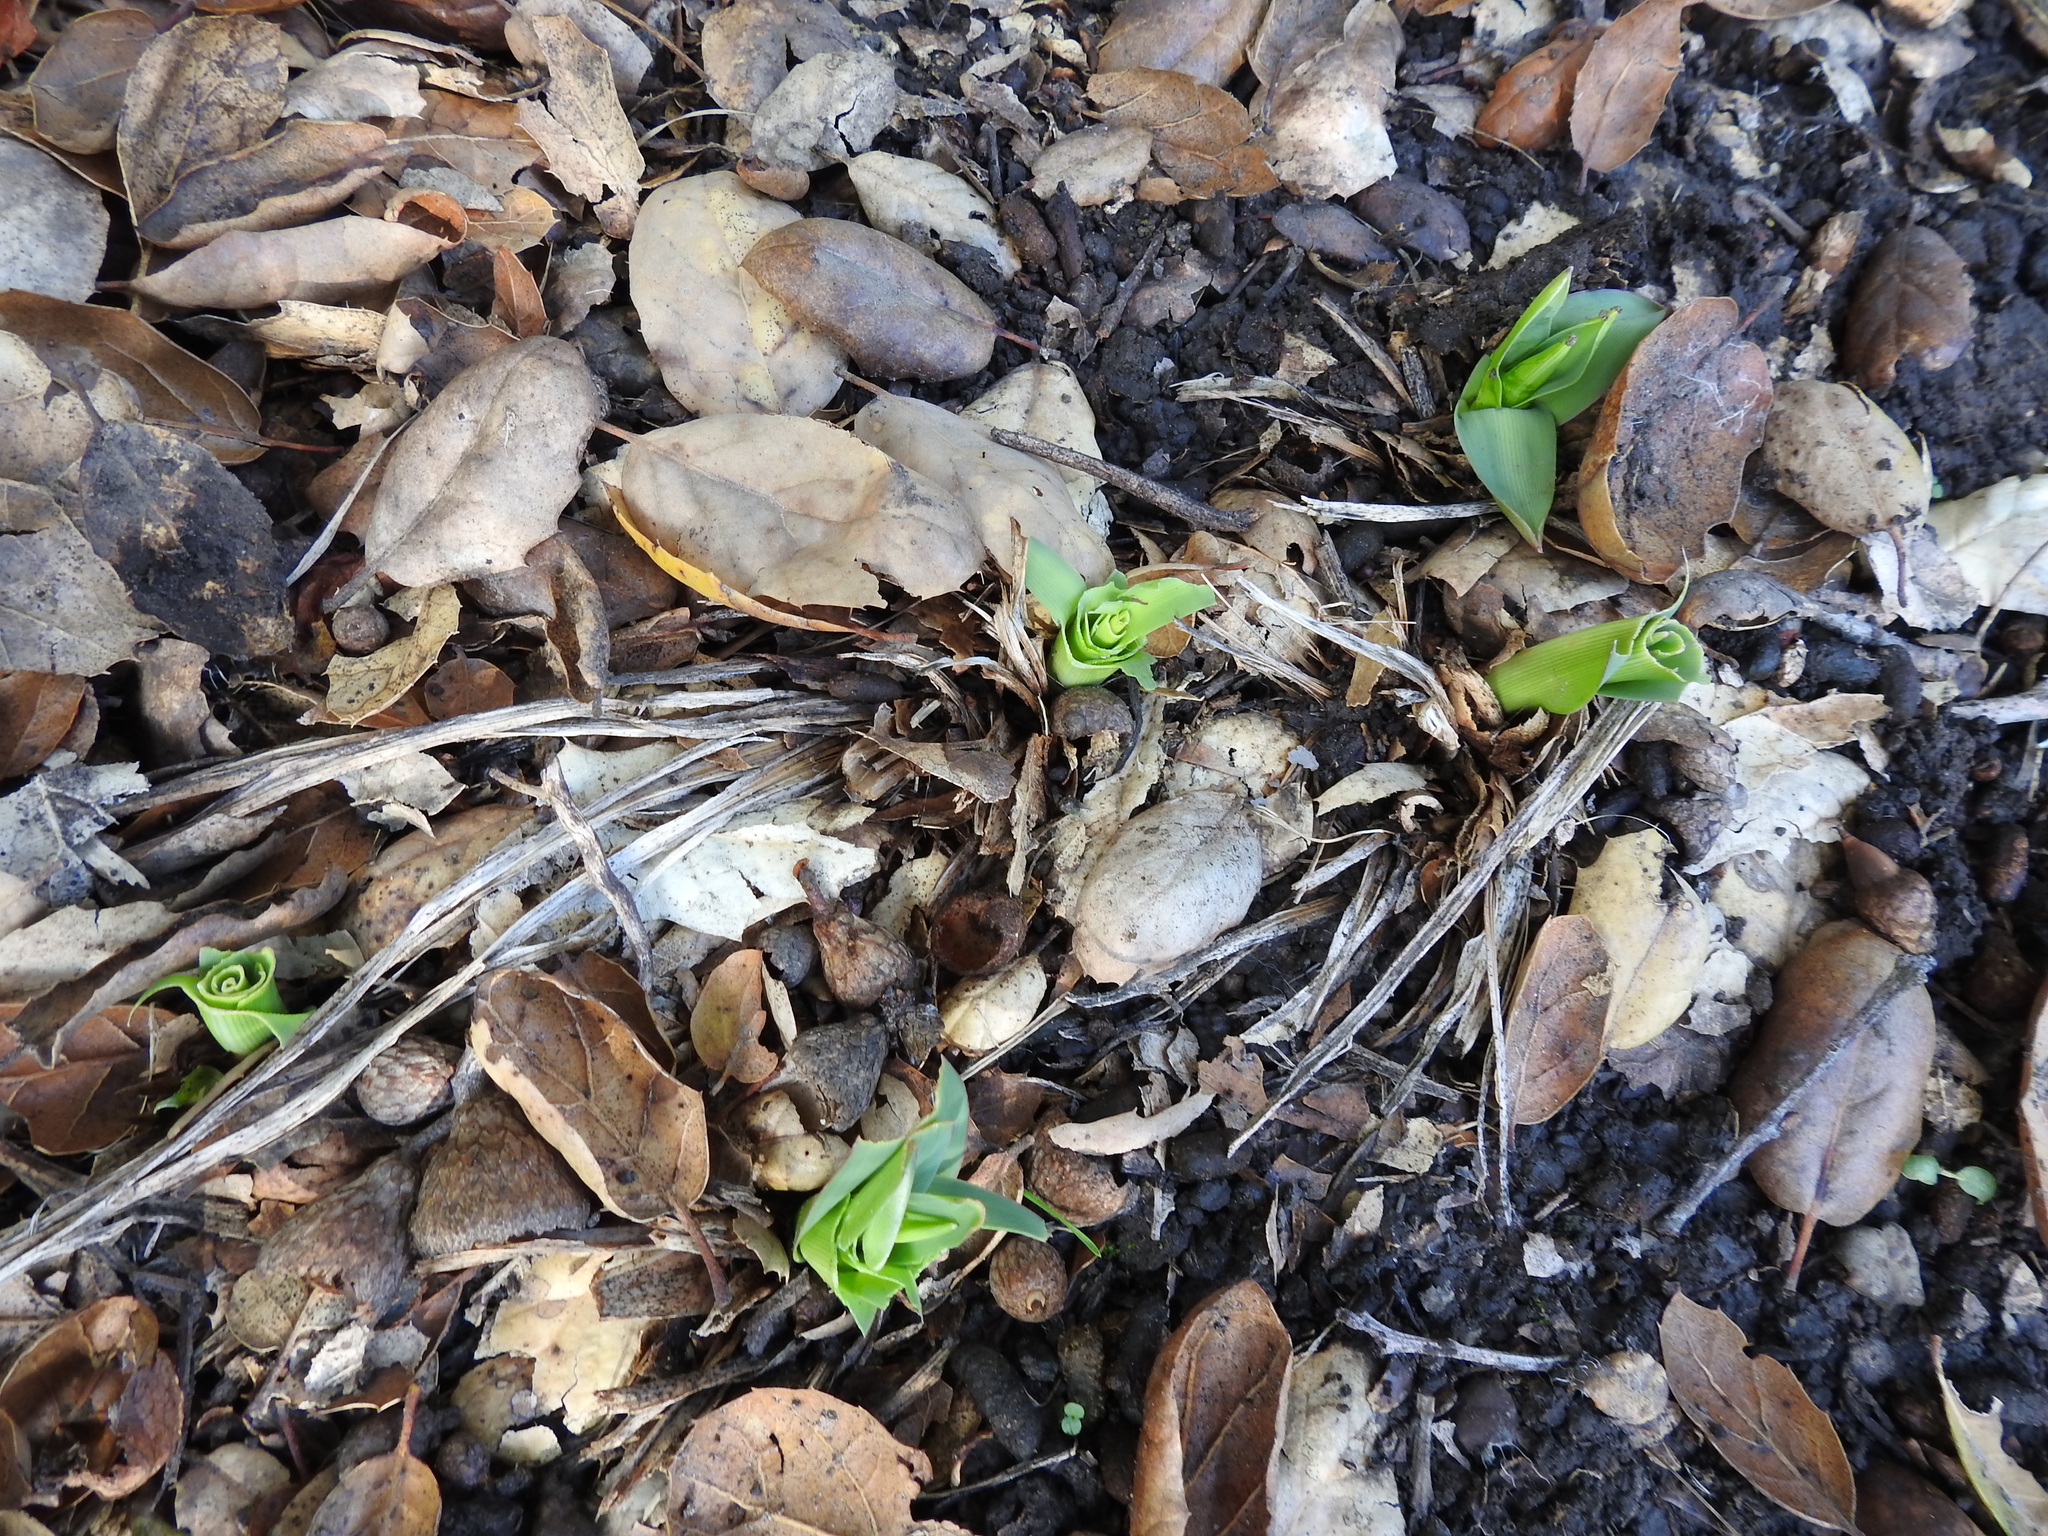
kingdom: Plantae
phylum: Tracheophyta
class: Liliopsida
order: Asparagales
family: Asparagaceae
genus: Chlorogalum
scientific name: Chlorogalum pomeridianum
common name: Amole
